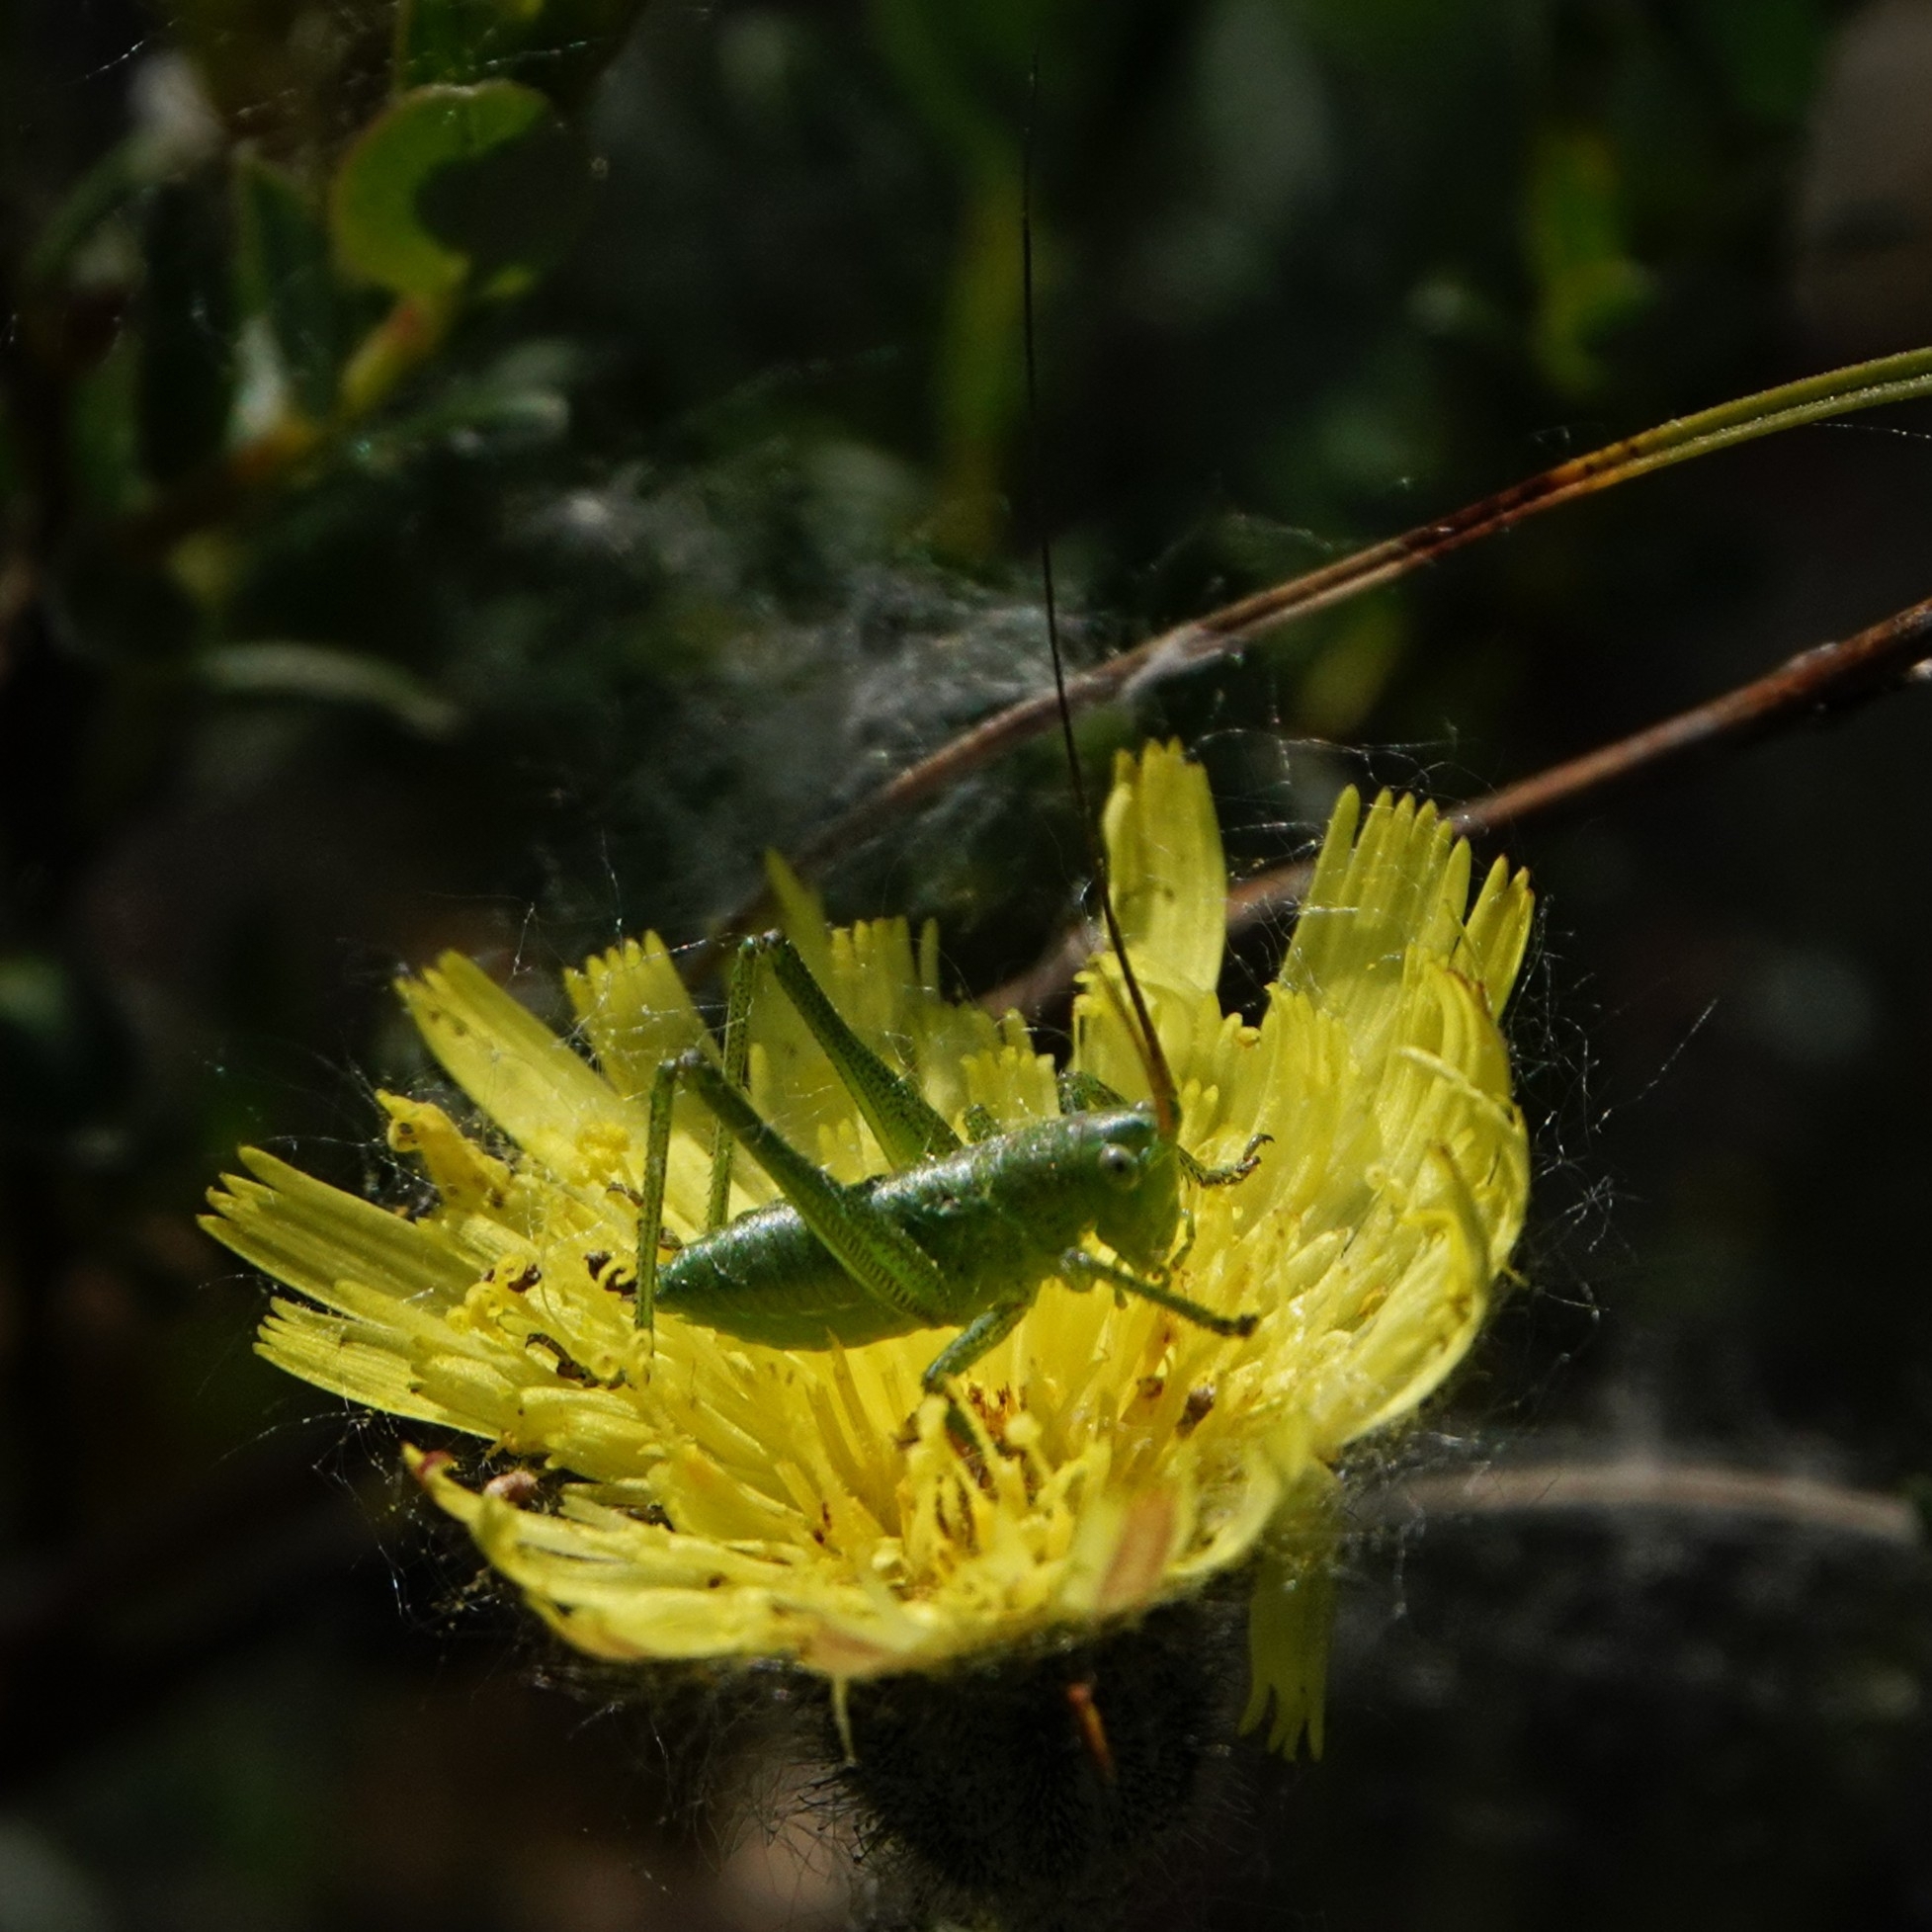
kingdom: Animalia
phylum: Arthropoda
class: Insecta
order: Orthoptera
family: Tettigoniidae
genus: Tettigonia
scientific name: Tettigonia viridissima
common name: Great green bush-cricket
